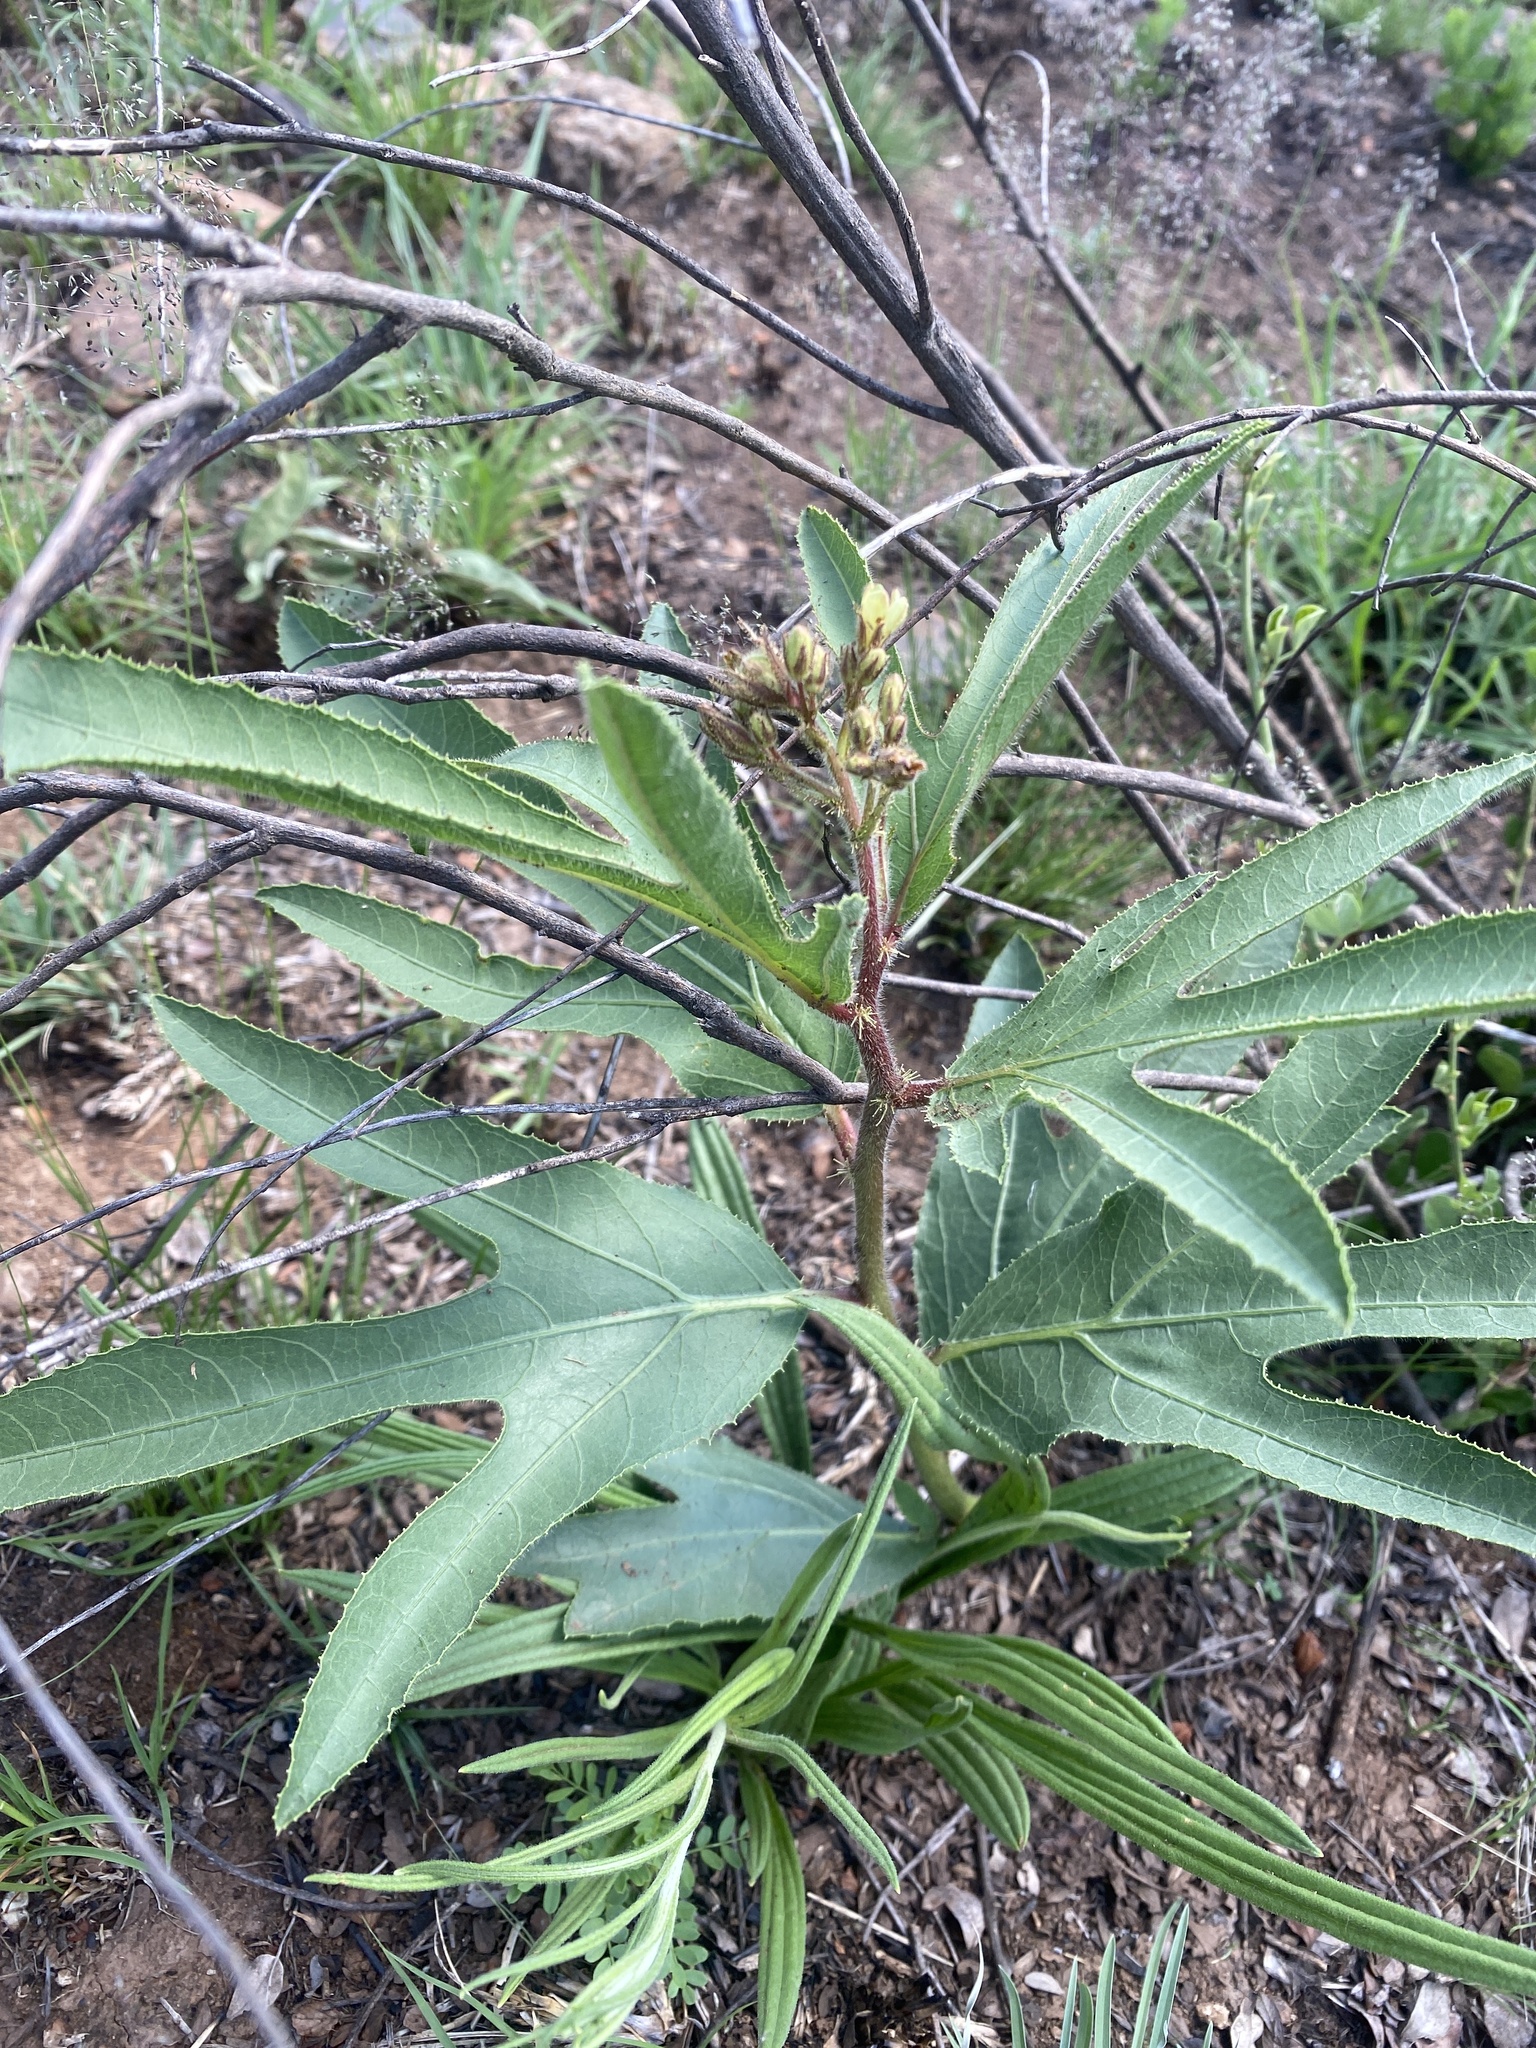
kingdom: Plantae
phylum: Tracheophyta
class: Magnoliopsida
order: Malpighiales
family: Euphorbiaceae
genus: Jatropha
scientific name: Jatropha zeyheri
